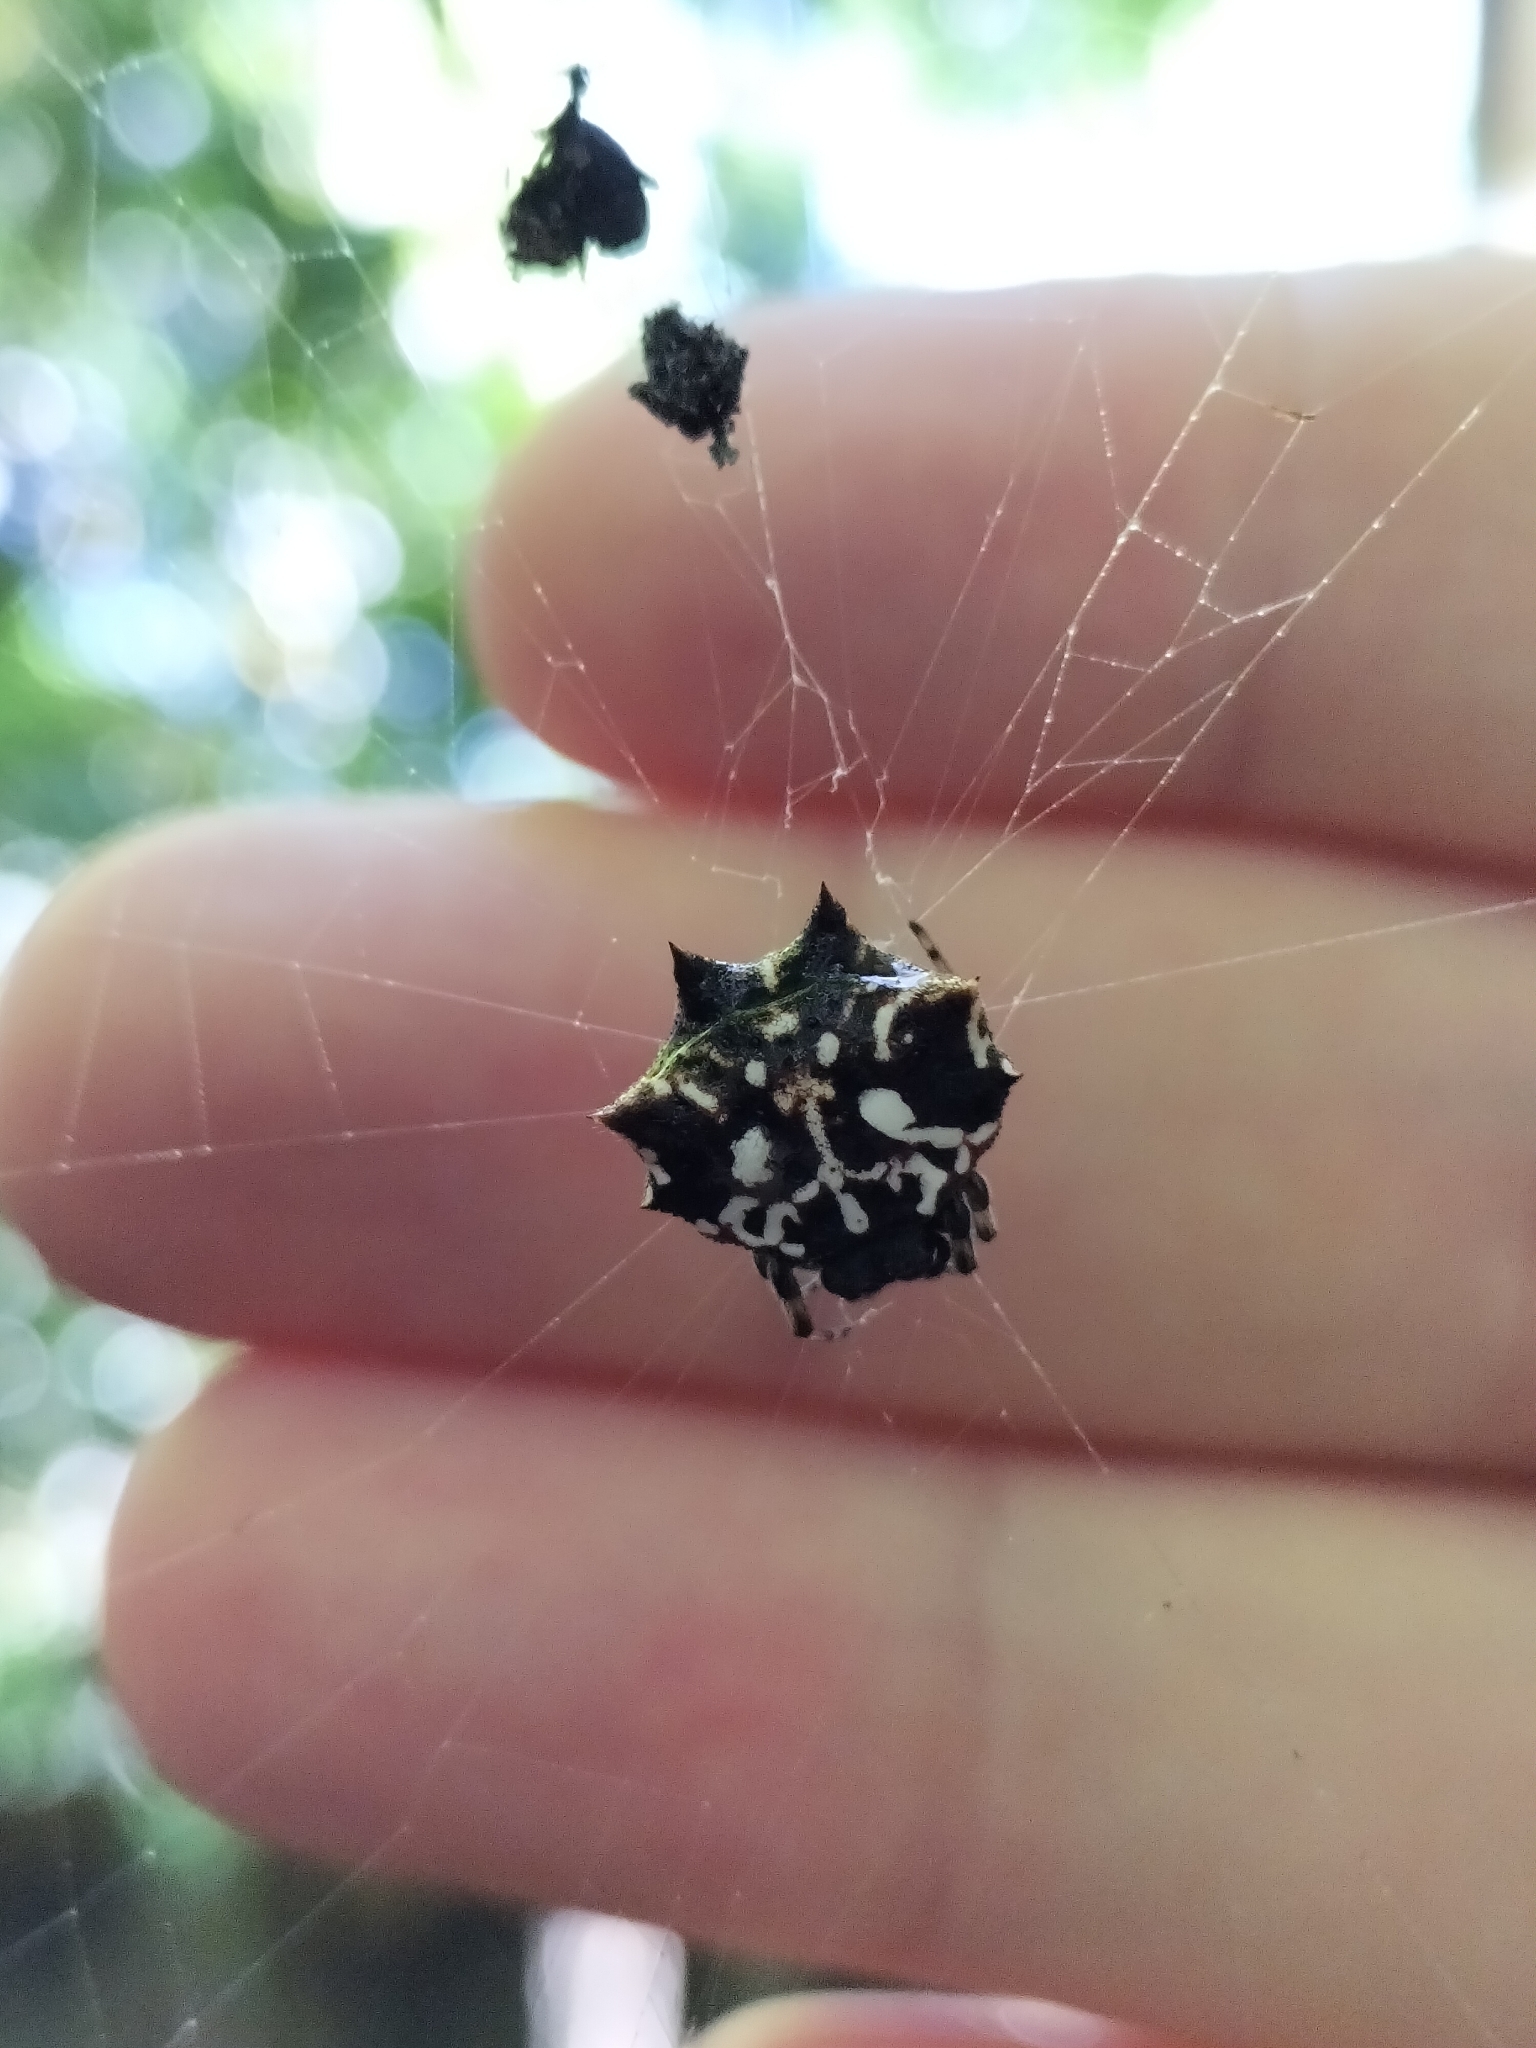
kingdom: Animalia
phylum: Arthropoda
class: Arachnida
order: Araneae
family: Araneidae
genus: Gasteracantha
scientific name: Gasteracantha sacerdotalis
